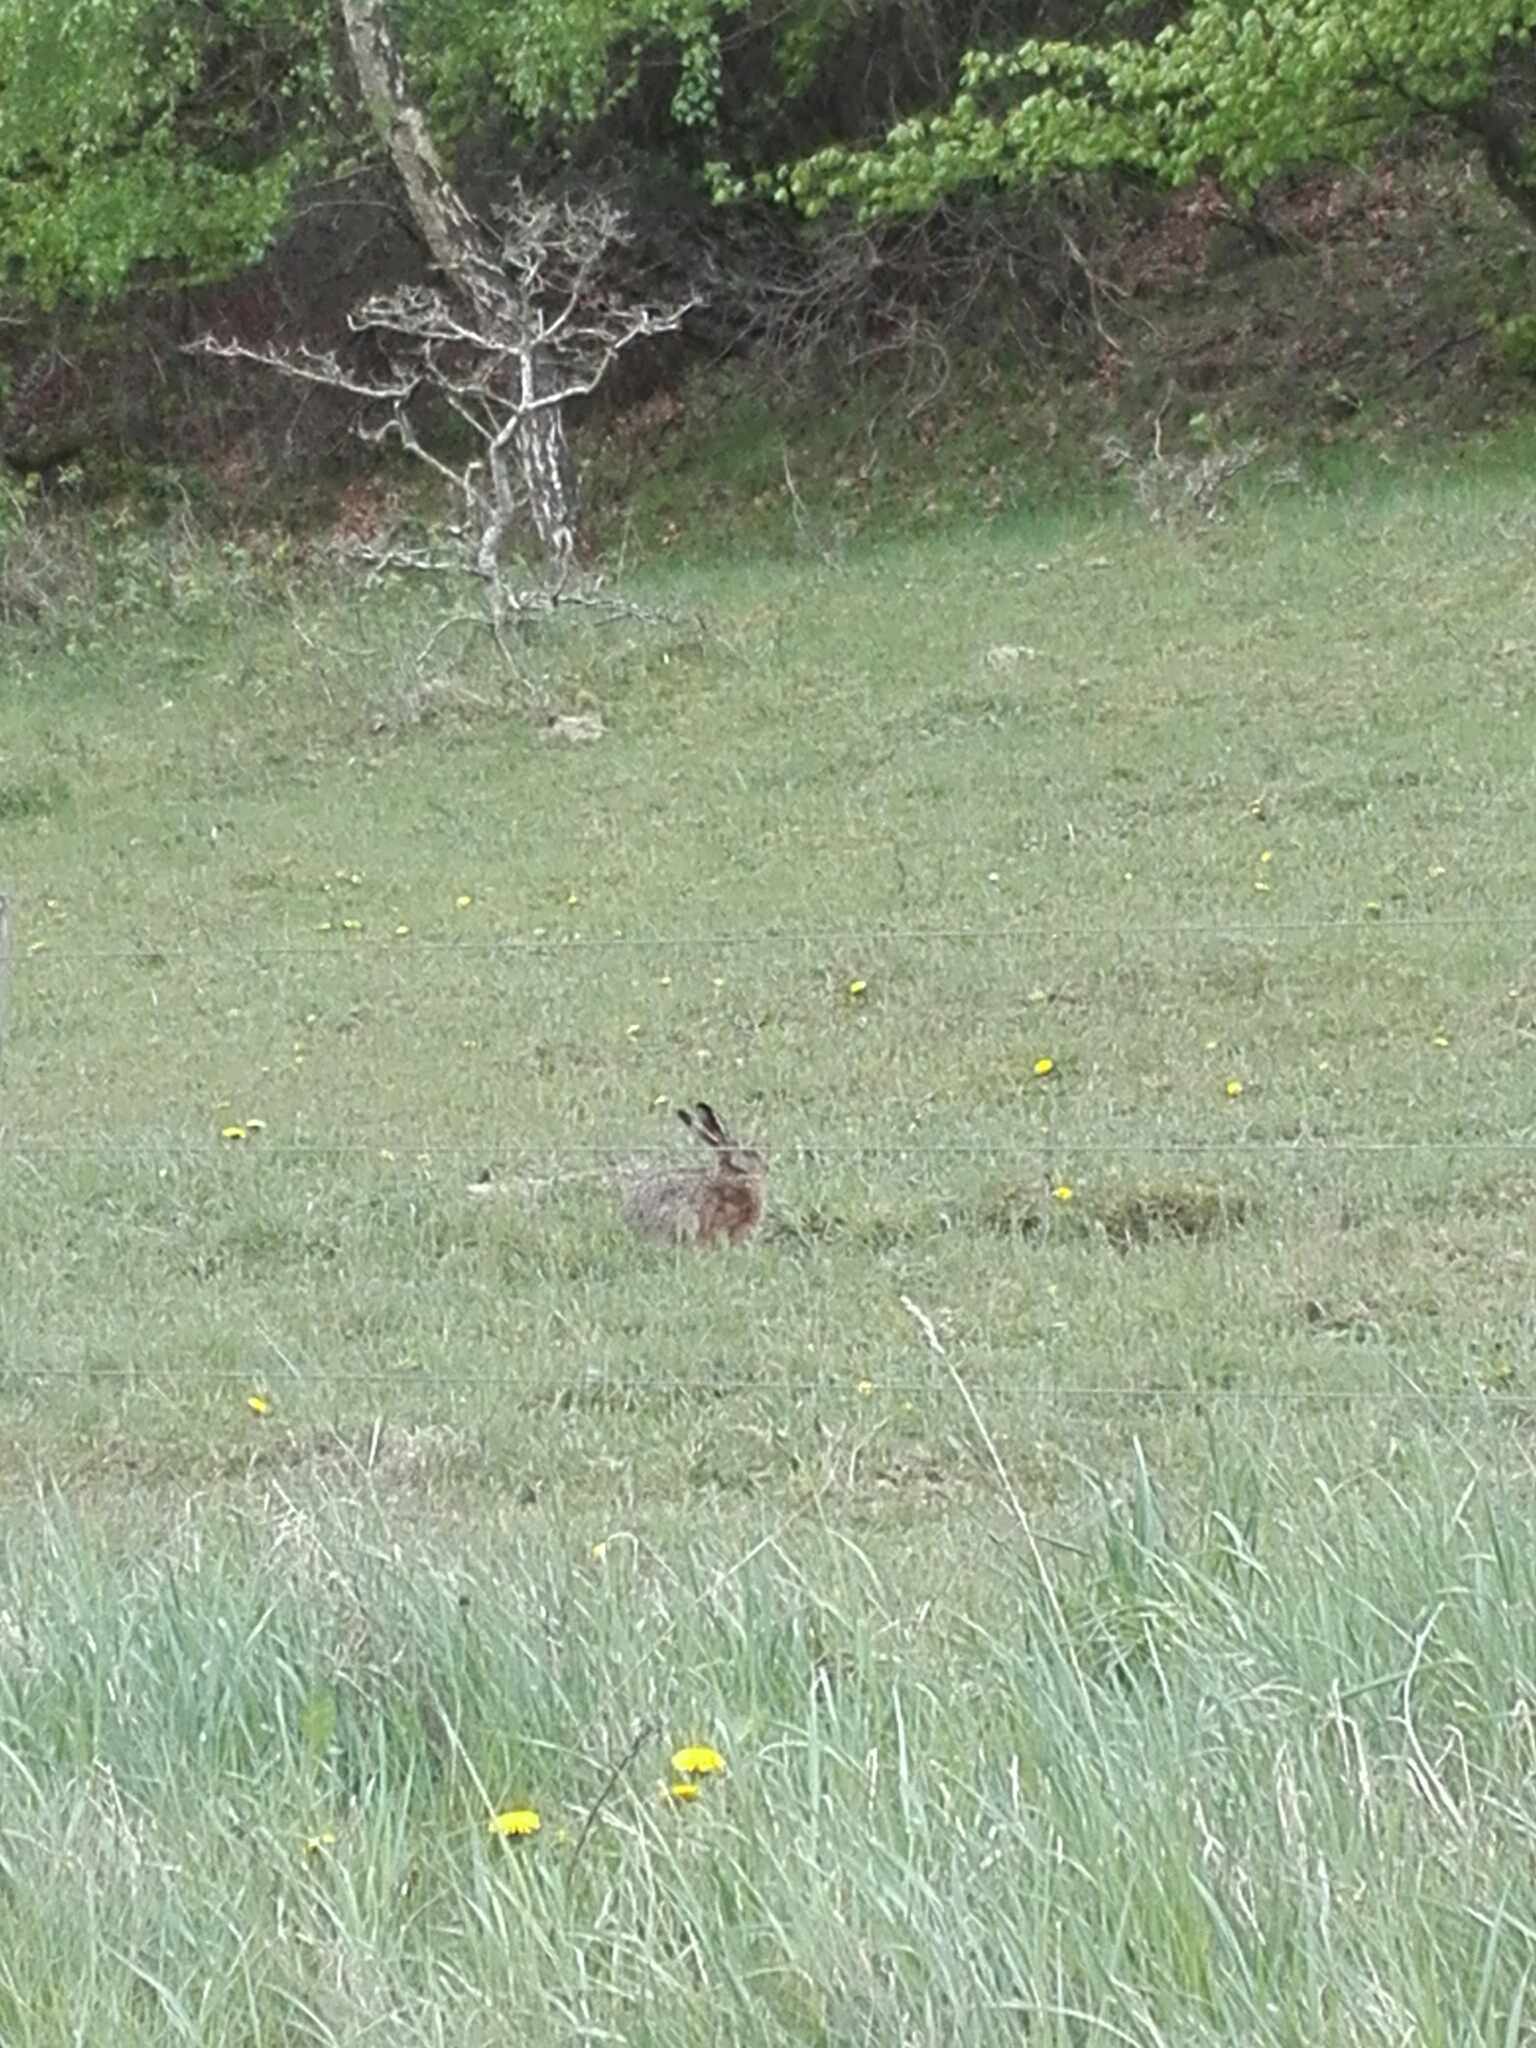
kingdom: Animalia
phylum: Chordata
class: Mammalia
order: Lagomorpha
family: Leporidae
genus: Lepus
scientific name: Lepus europaeus
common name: European hare
